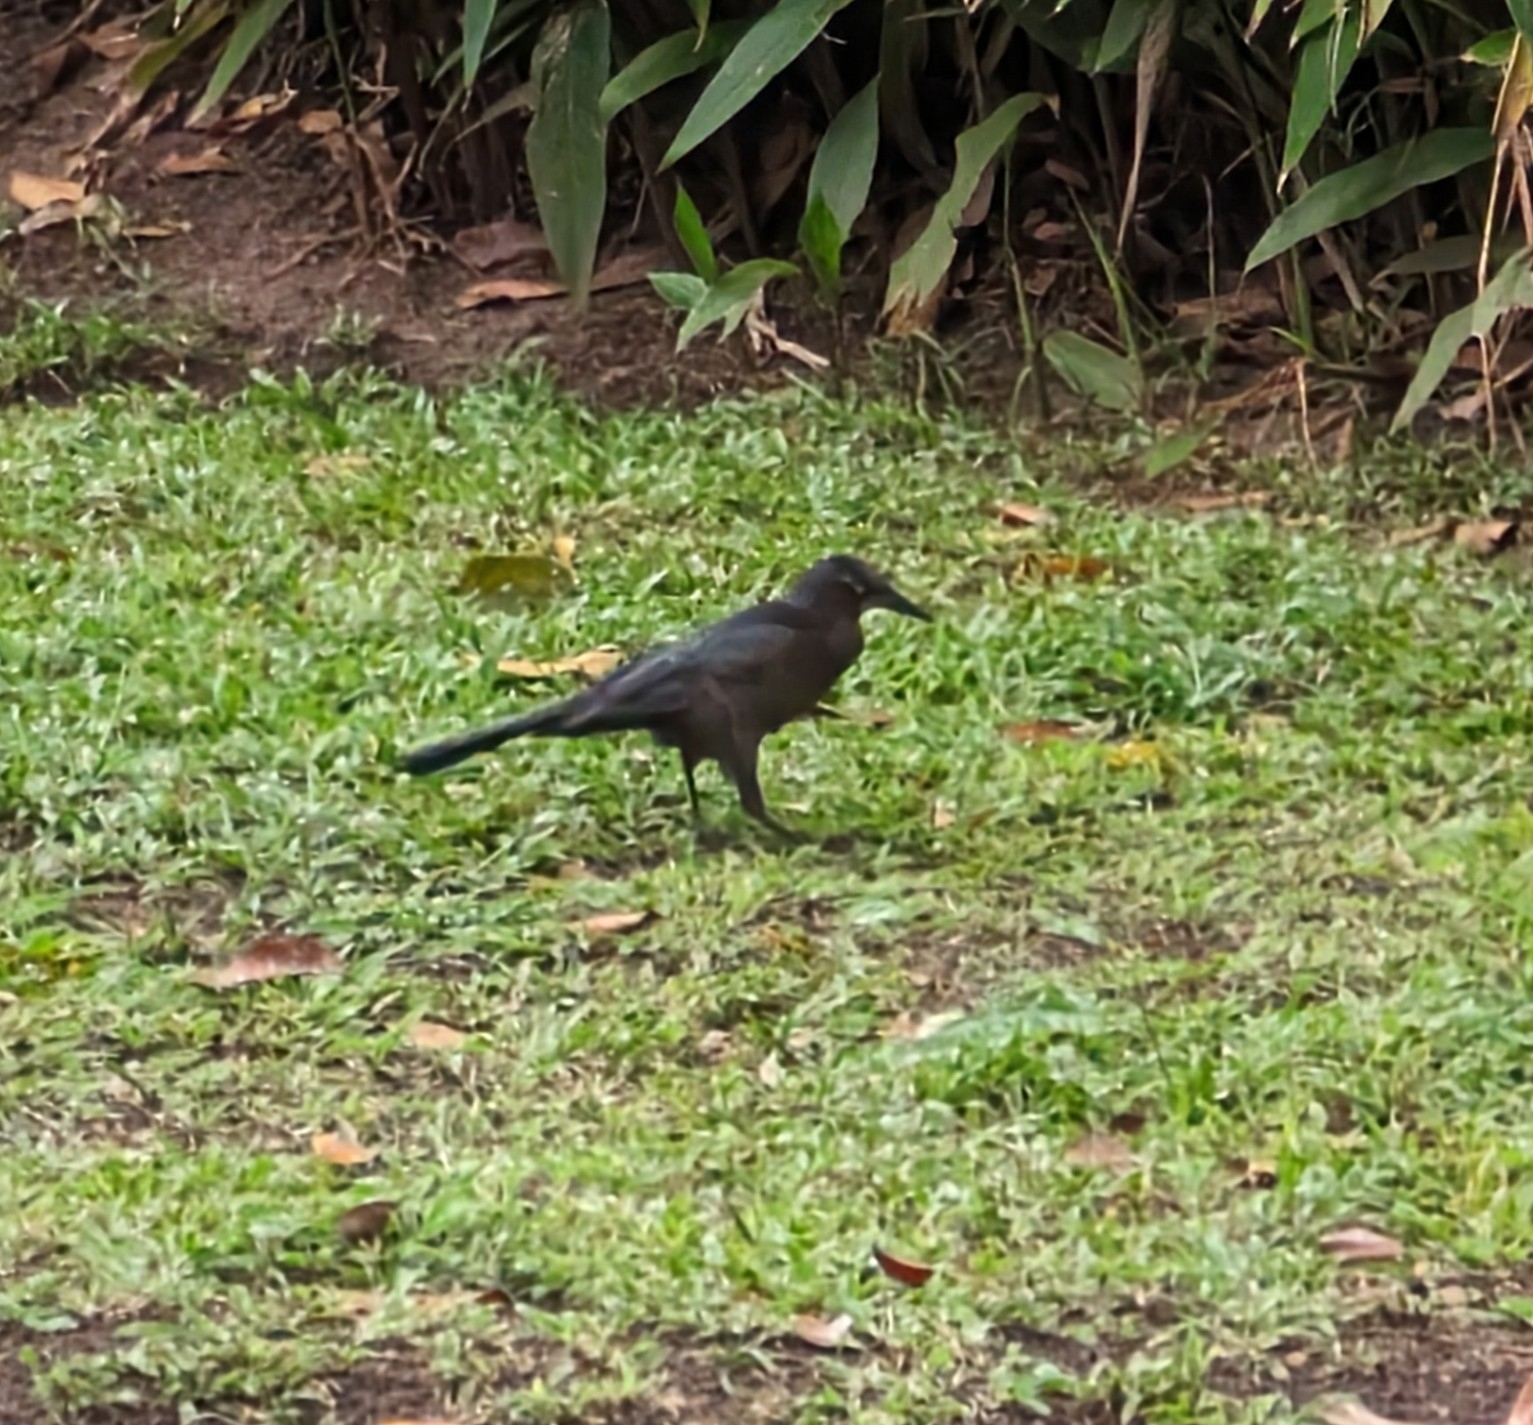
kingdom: Animalia
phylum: Chordata
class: Aves
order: Passeriformes
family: Icteridae
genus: Quiscalus
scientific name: Quiscalus mexicanus
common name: Great-tailed grackle
